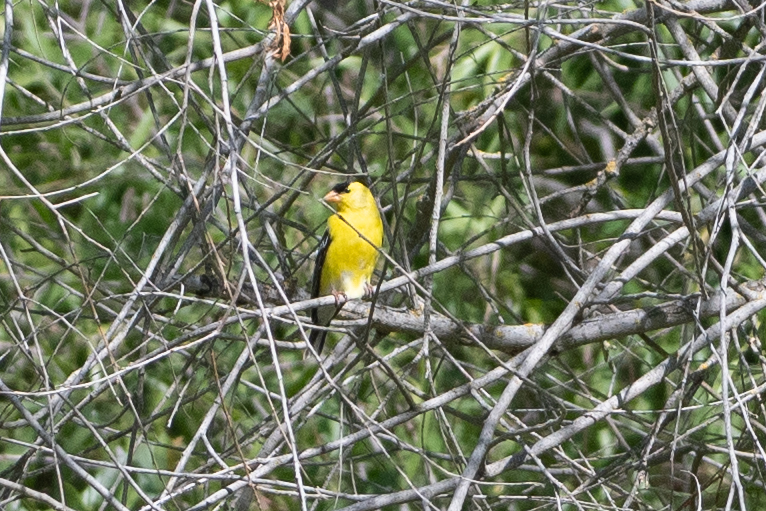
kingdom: Animalia
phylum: Chordata
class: Aves
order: Passeriformes
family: Fringillidae
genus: Spinus
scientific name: Spinus tristis
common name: American goldfinch
